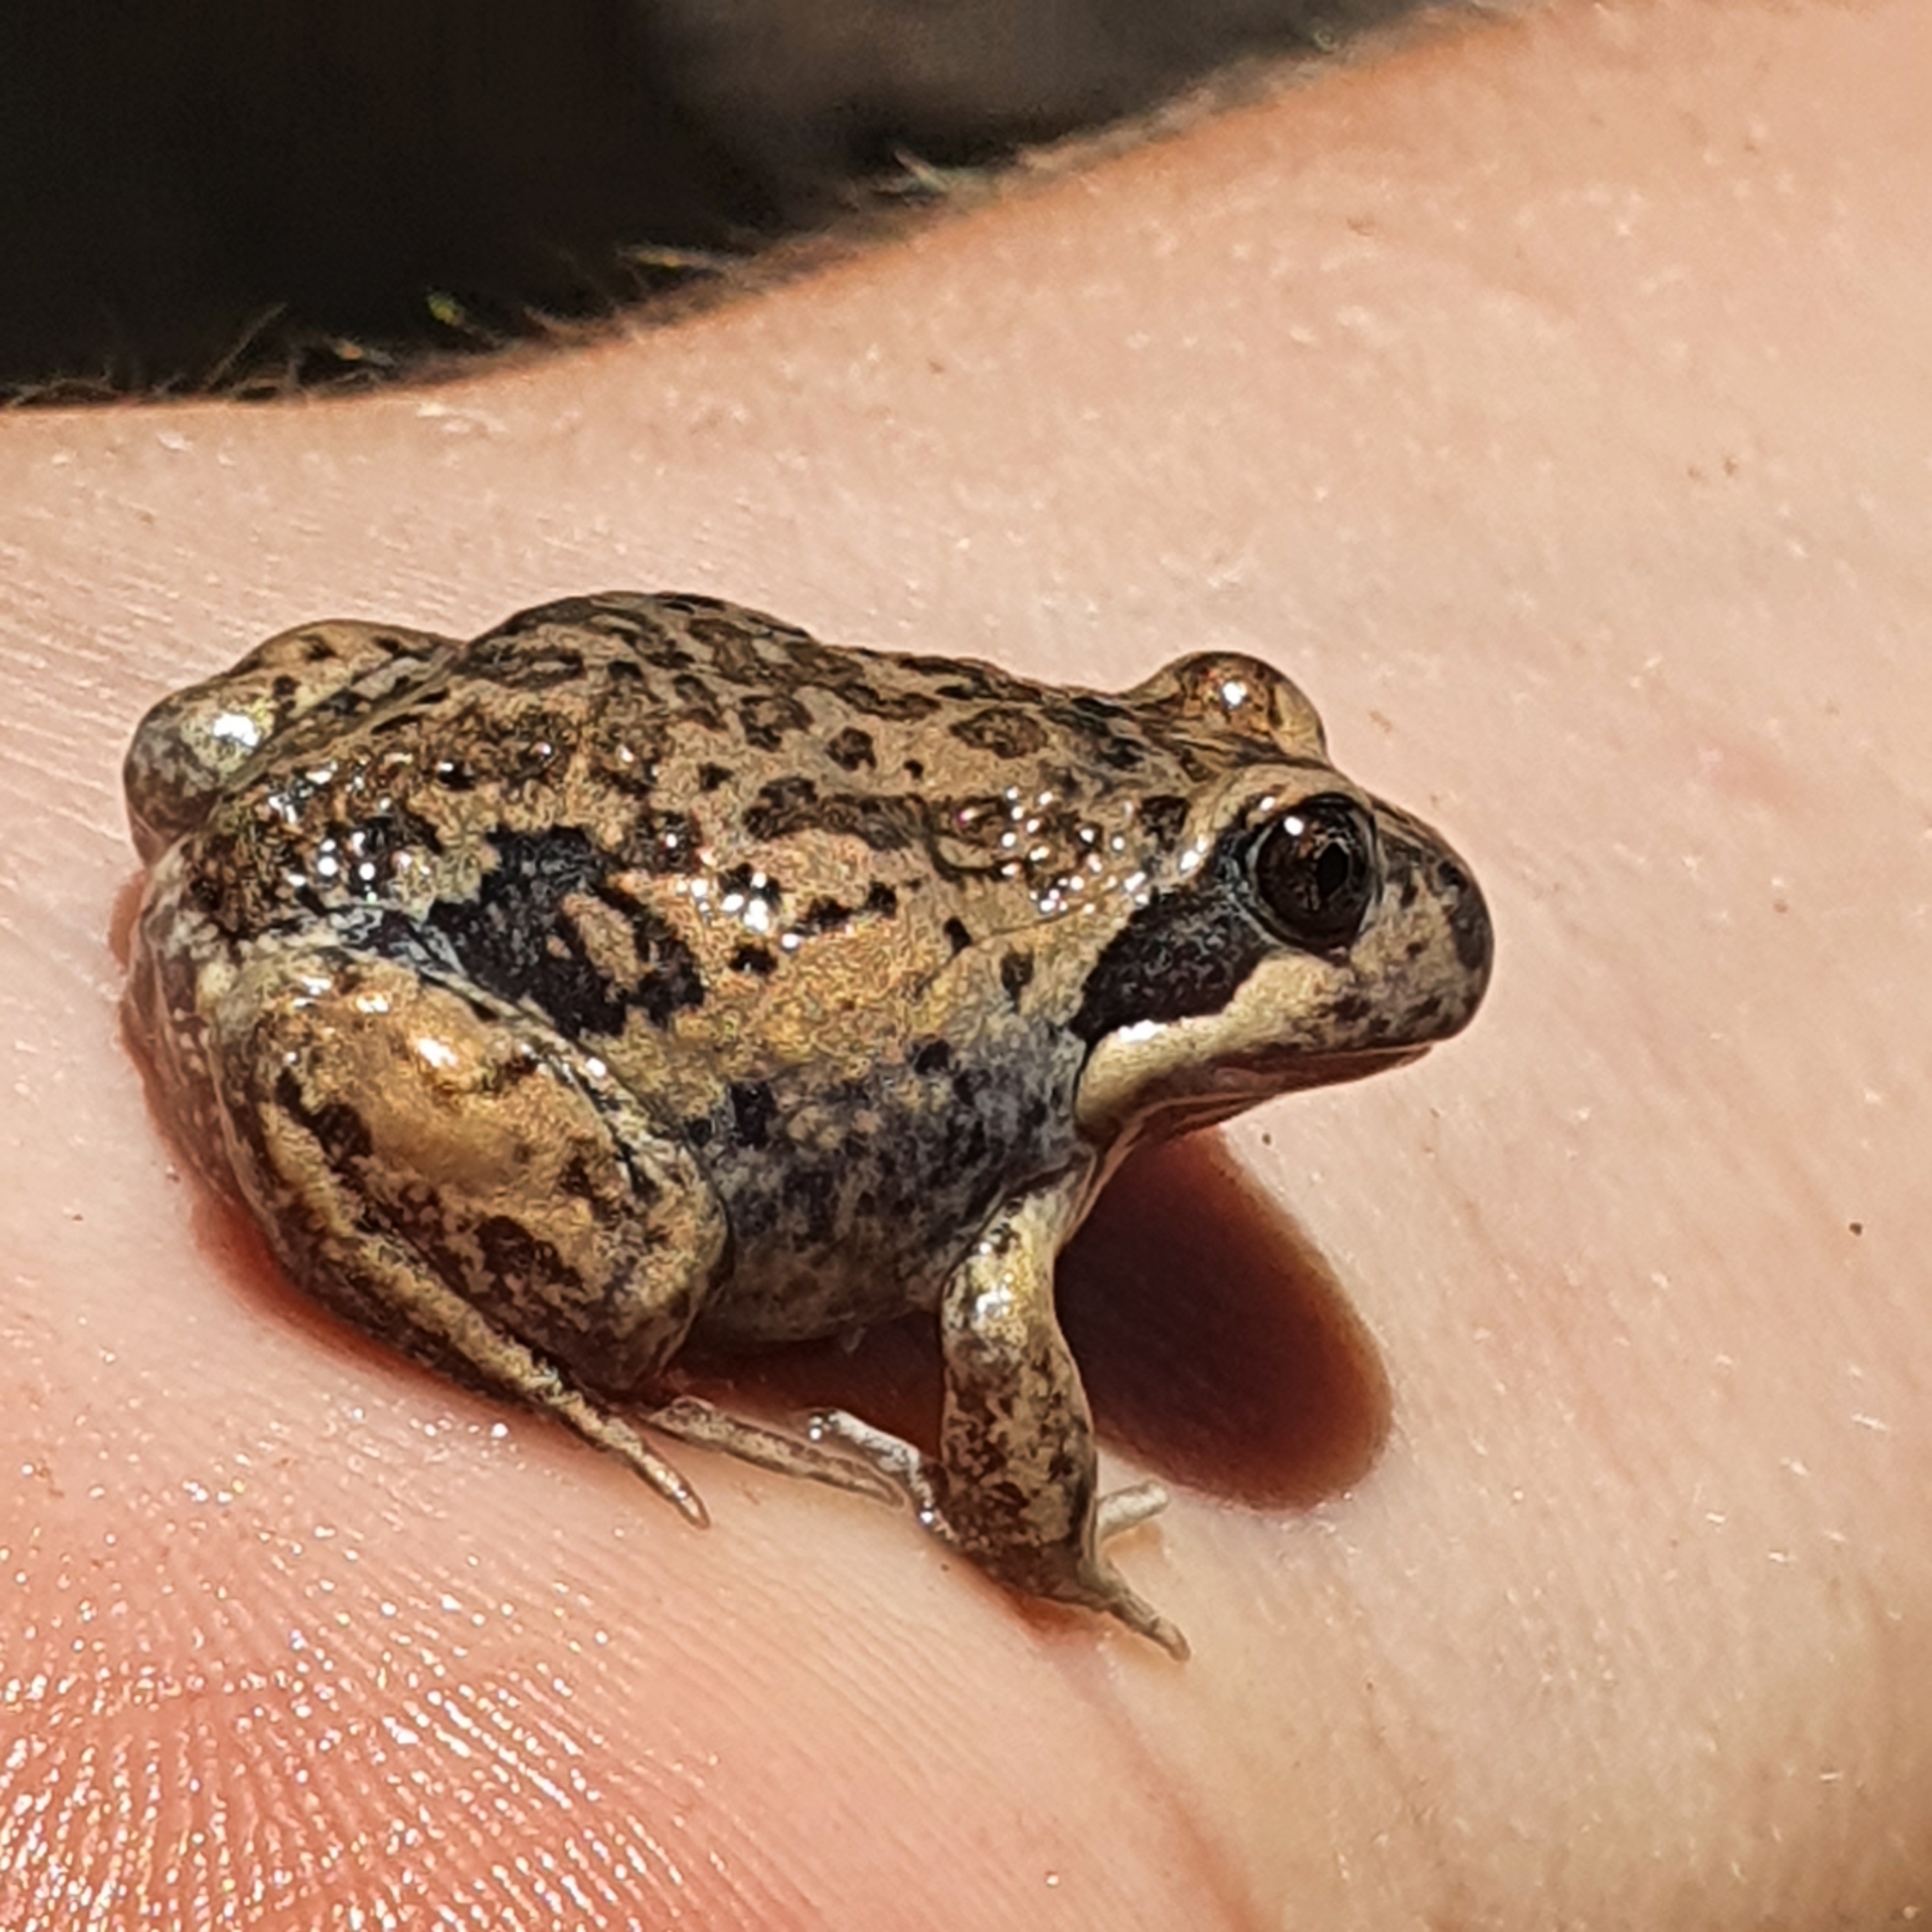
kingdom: Animalia
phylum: Chordata
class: Amphibia
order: Anura
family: Limnodynastidae
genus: Limnodynastes
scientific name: Limnodynastes dumerilii
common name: Banjo frog
